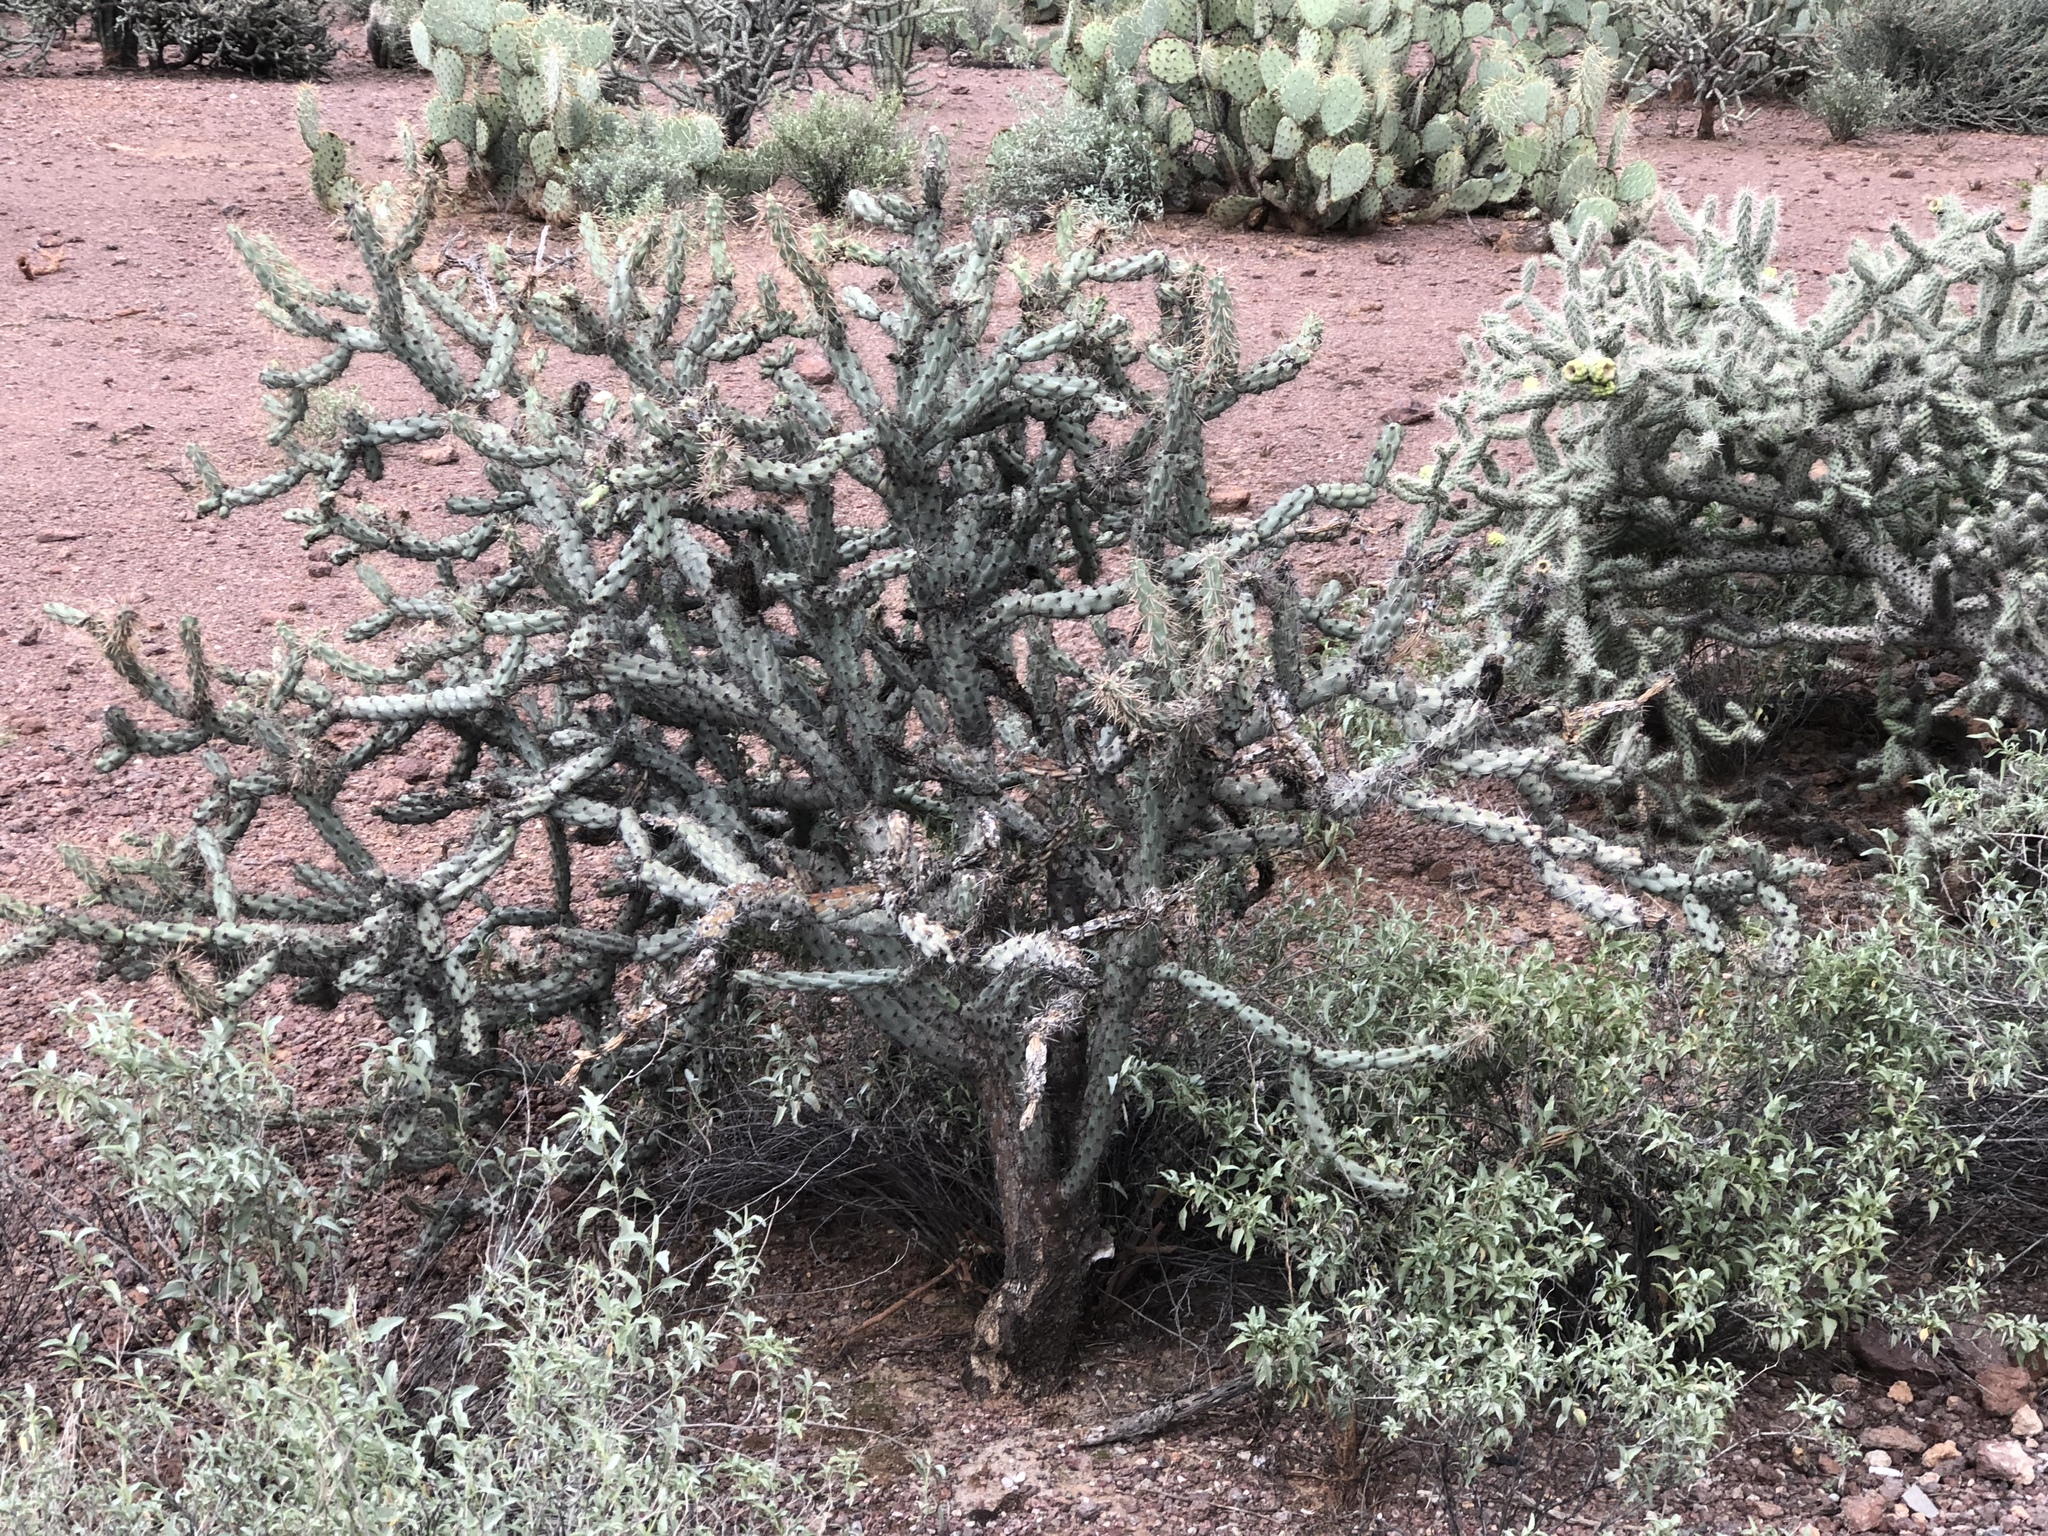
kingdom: Plantae
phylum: Tracheophyta
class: Magnoliopsida
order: Caryophyllales
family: Cactaceae
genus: Cylindropuntia
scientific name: Cylindropuntia thurberi
